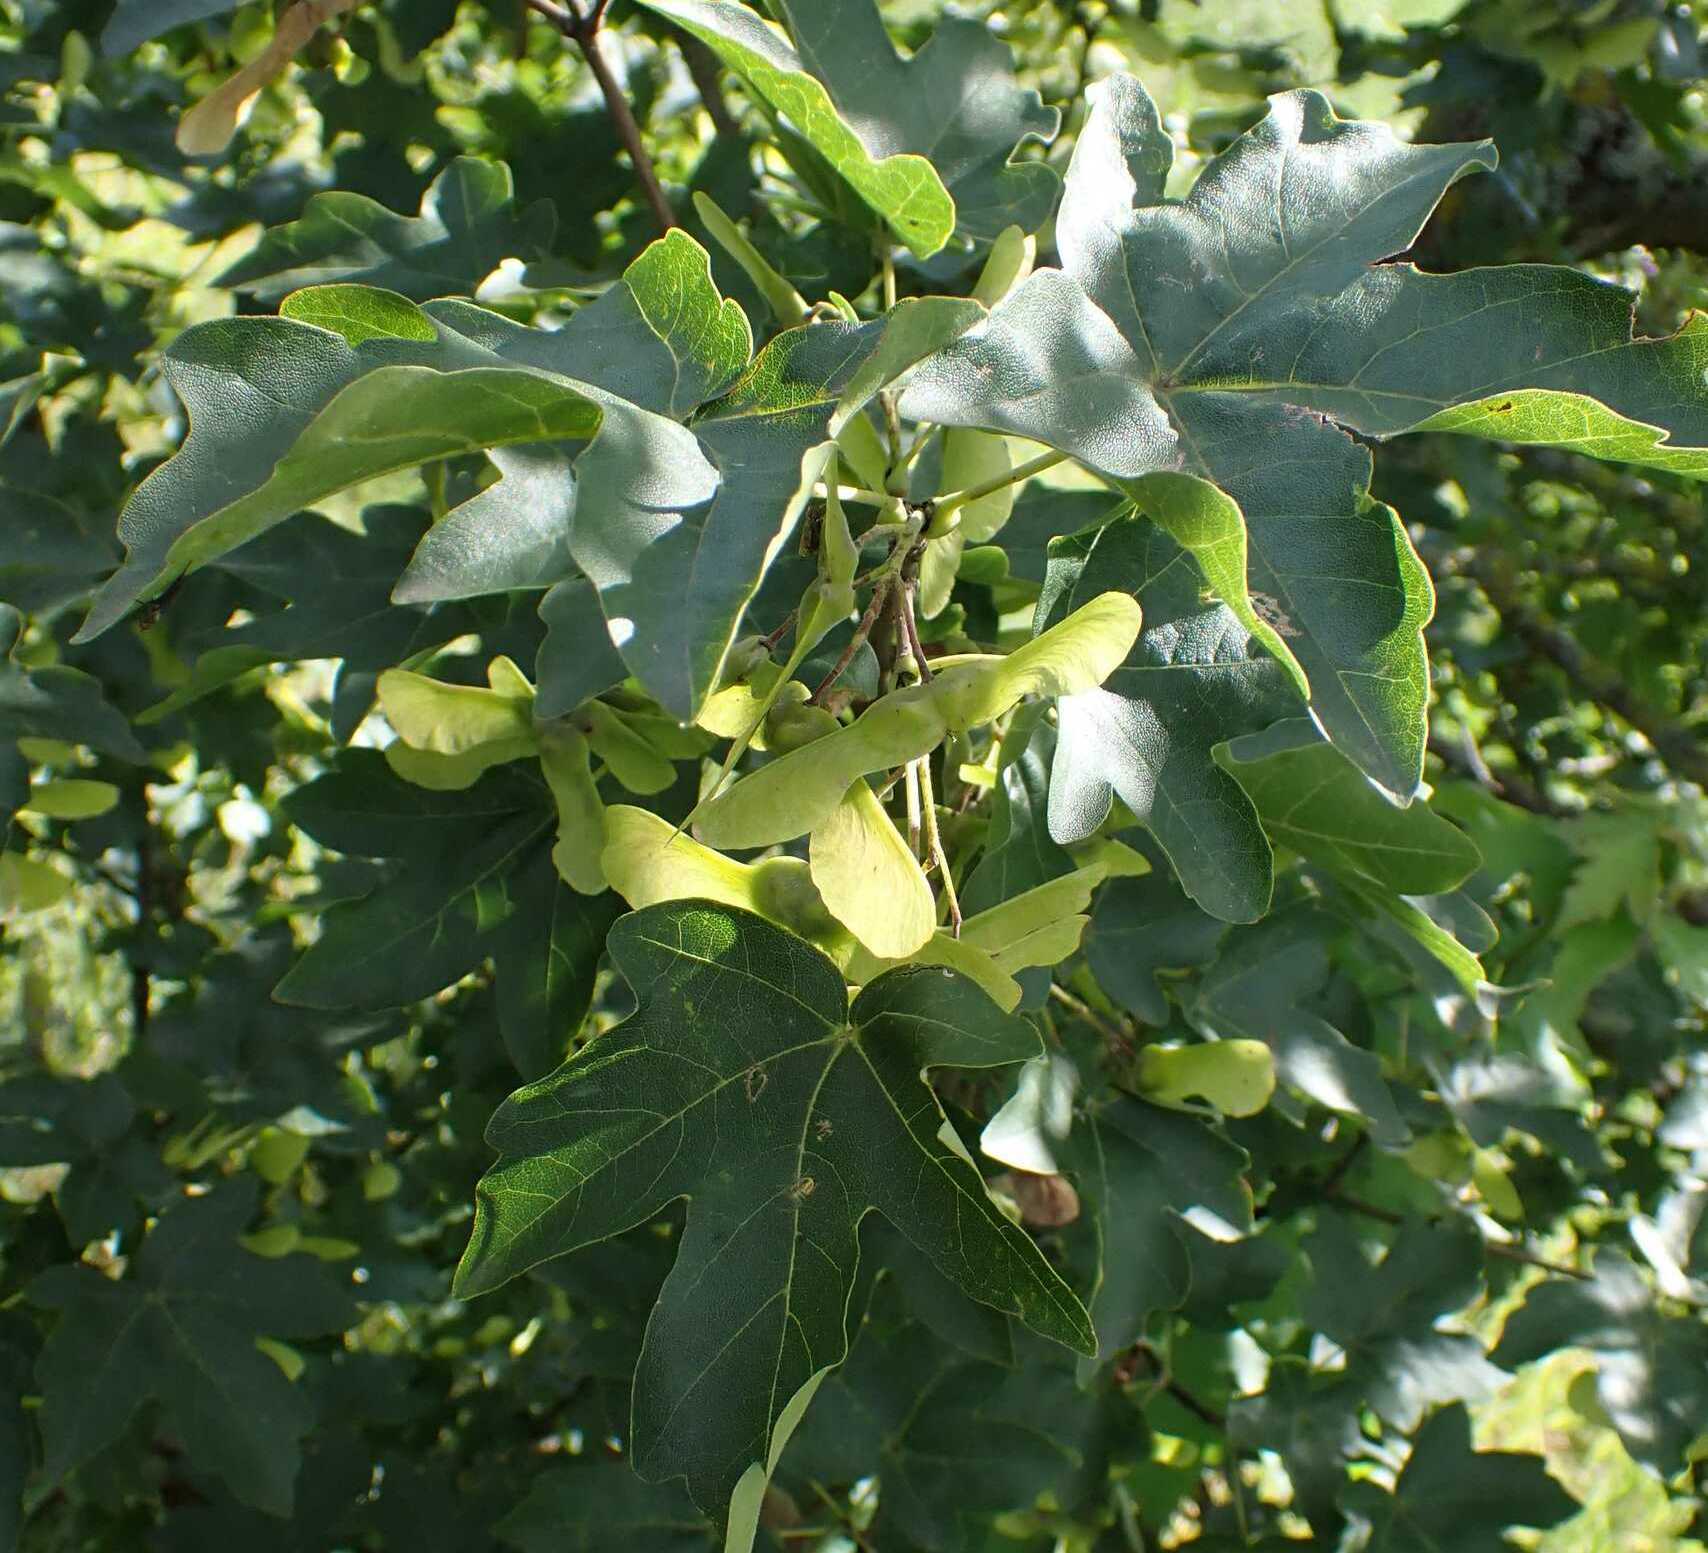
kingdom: Plantae
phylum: Tracheophyta
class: Magnoliopsida
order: Sapindales
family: Sapindaceae
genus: Acer
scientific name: Acer campestre
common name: Field maple
